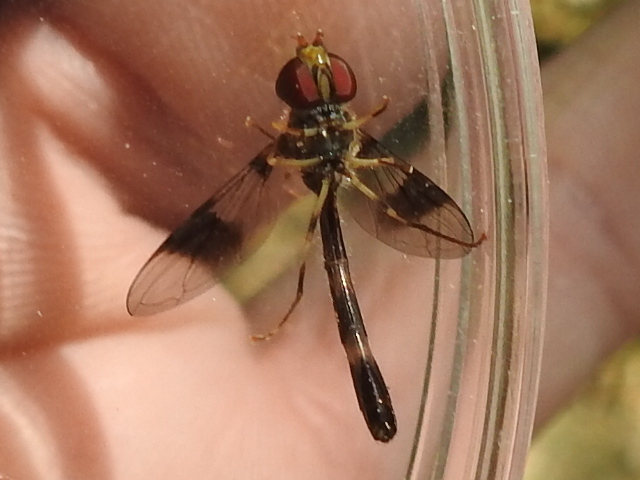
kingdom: Animalia
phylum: Arthropoda
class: Insecta
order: Diptera
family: Syrphidae
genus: Hypocritanus
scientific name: Hypocritanus fascipennis
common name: Eastern band-winged hover fly
